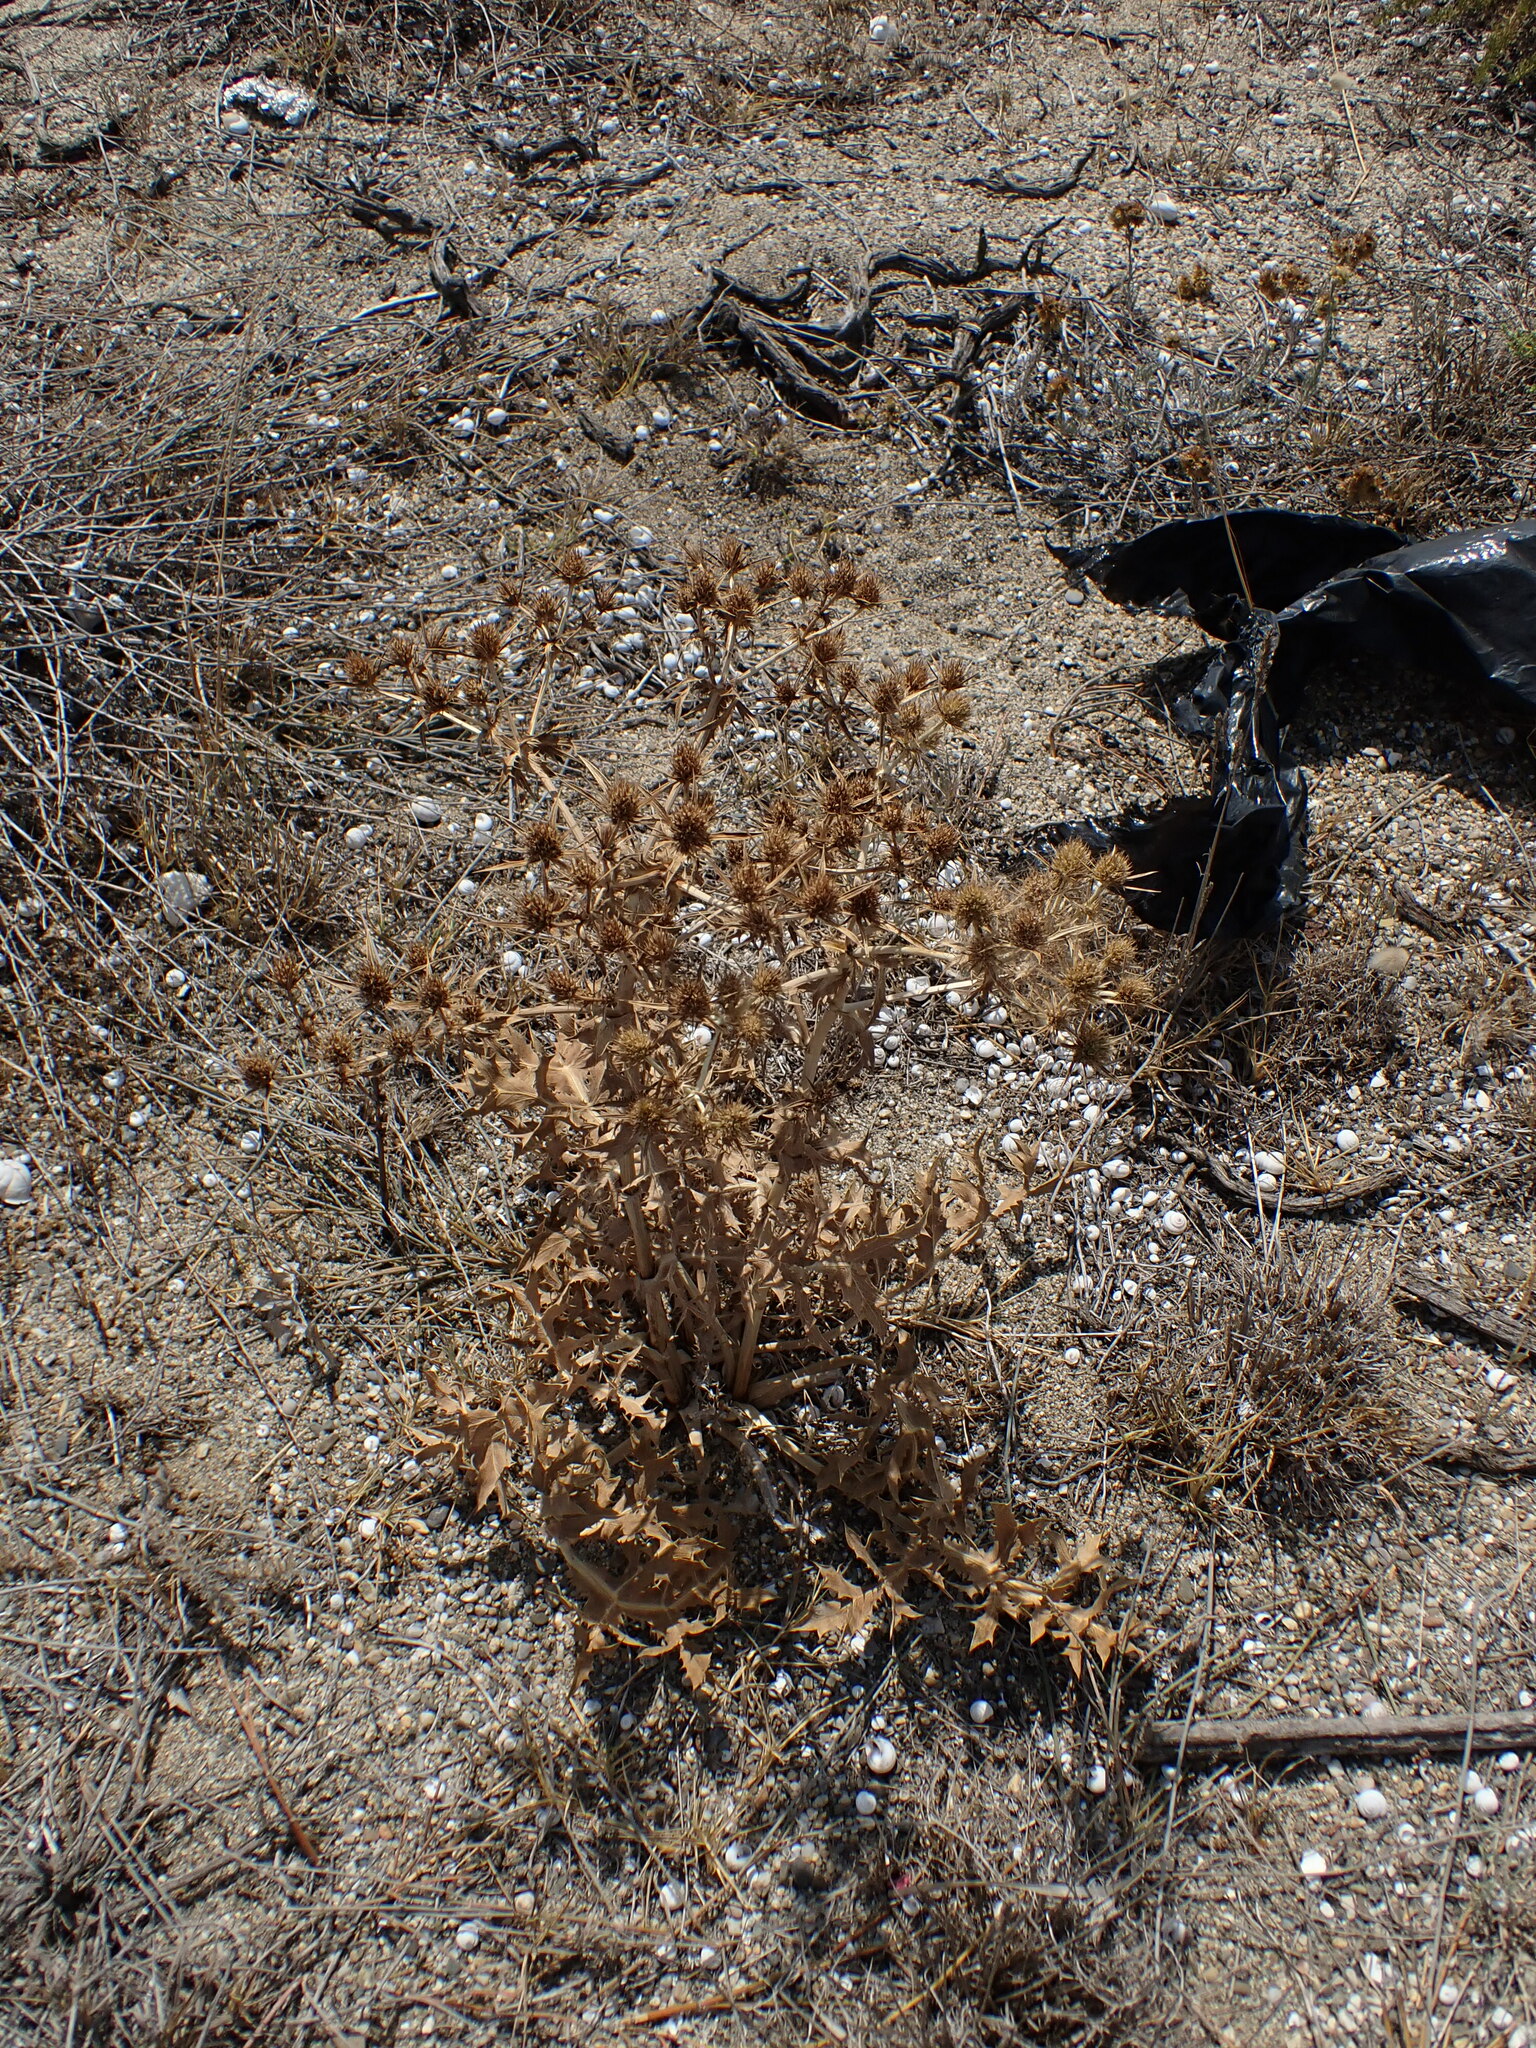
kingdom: Plantae
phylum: Tracheophyta
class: Magnoliopsida
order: Apiales
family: Apiaceae
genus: Eryngium
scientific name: Eryngium campestre
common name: Field eryngo
